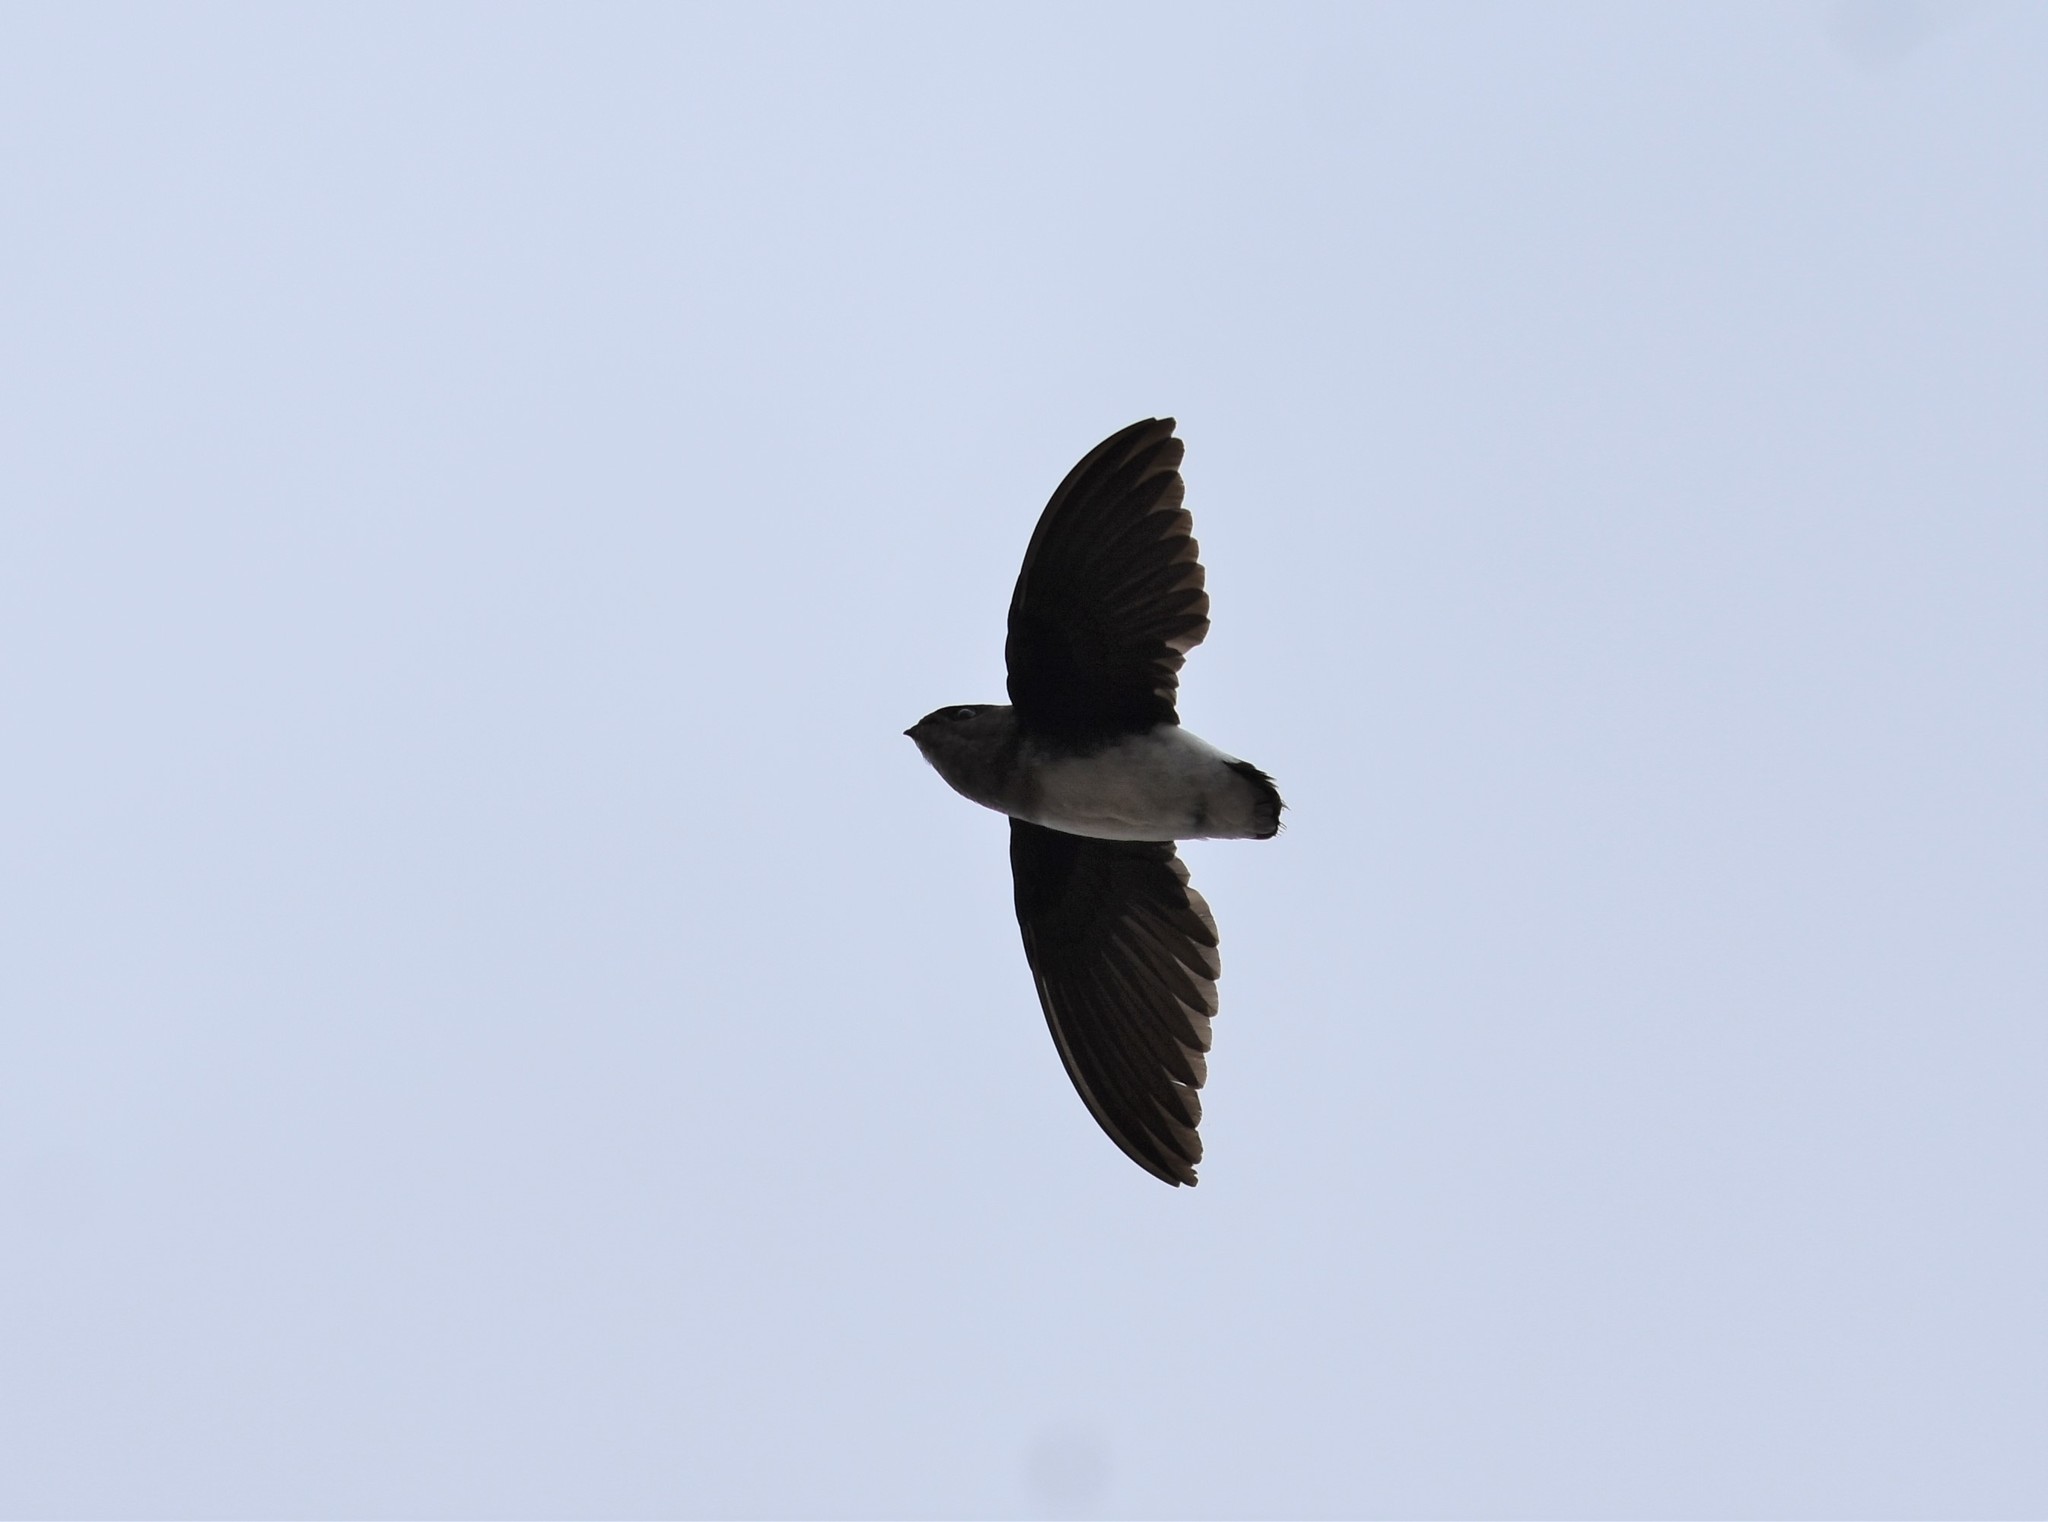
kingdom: Animalia
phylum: Chordata
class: Aves
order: Apodiformes
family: Apodidae
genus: Neafrapus
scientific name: Neafrapus boehmi
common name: Böhm's spinetail
